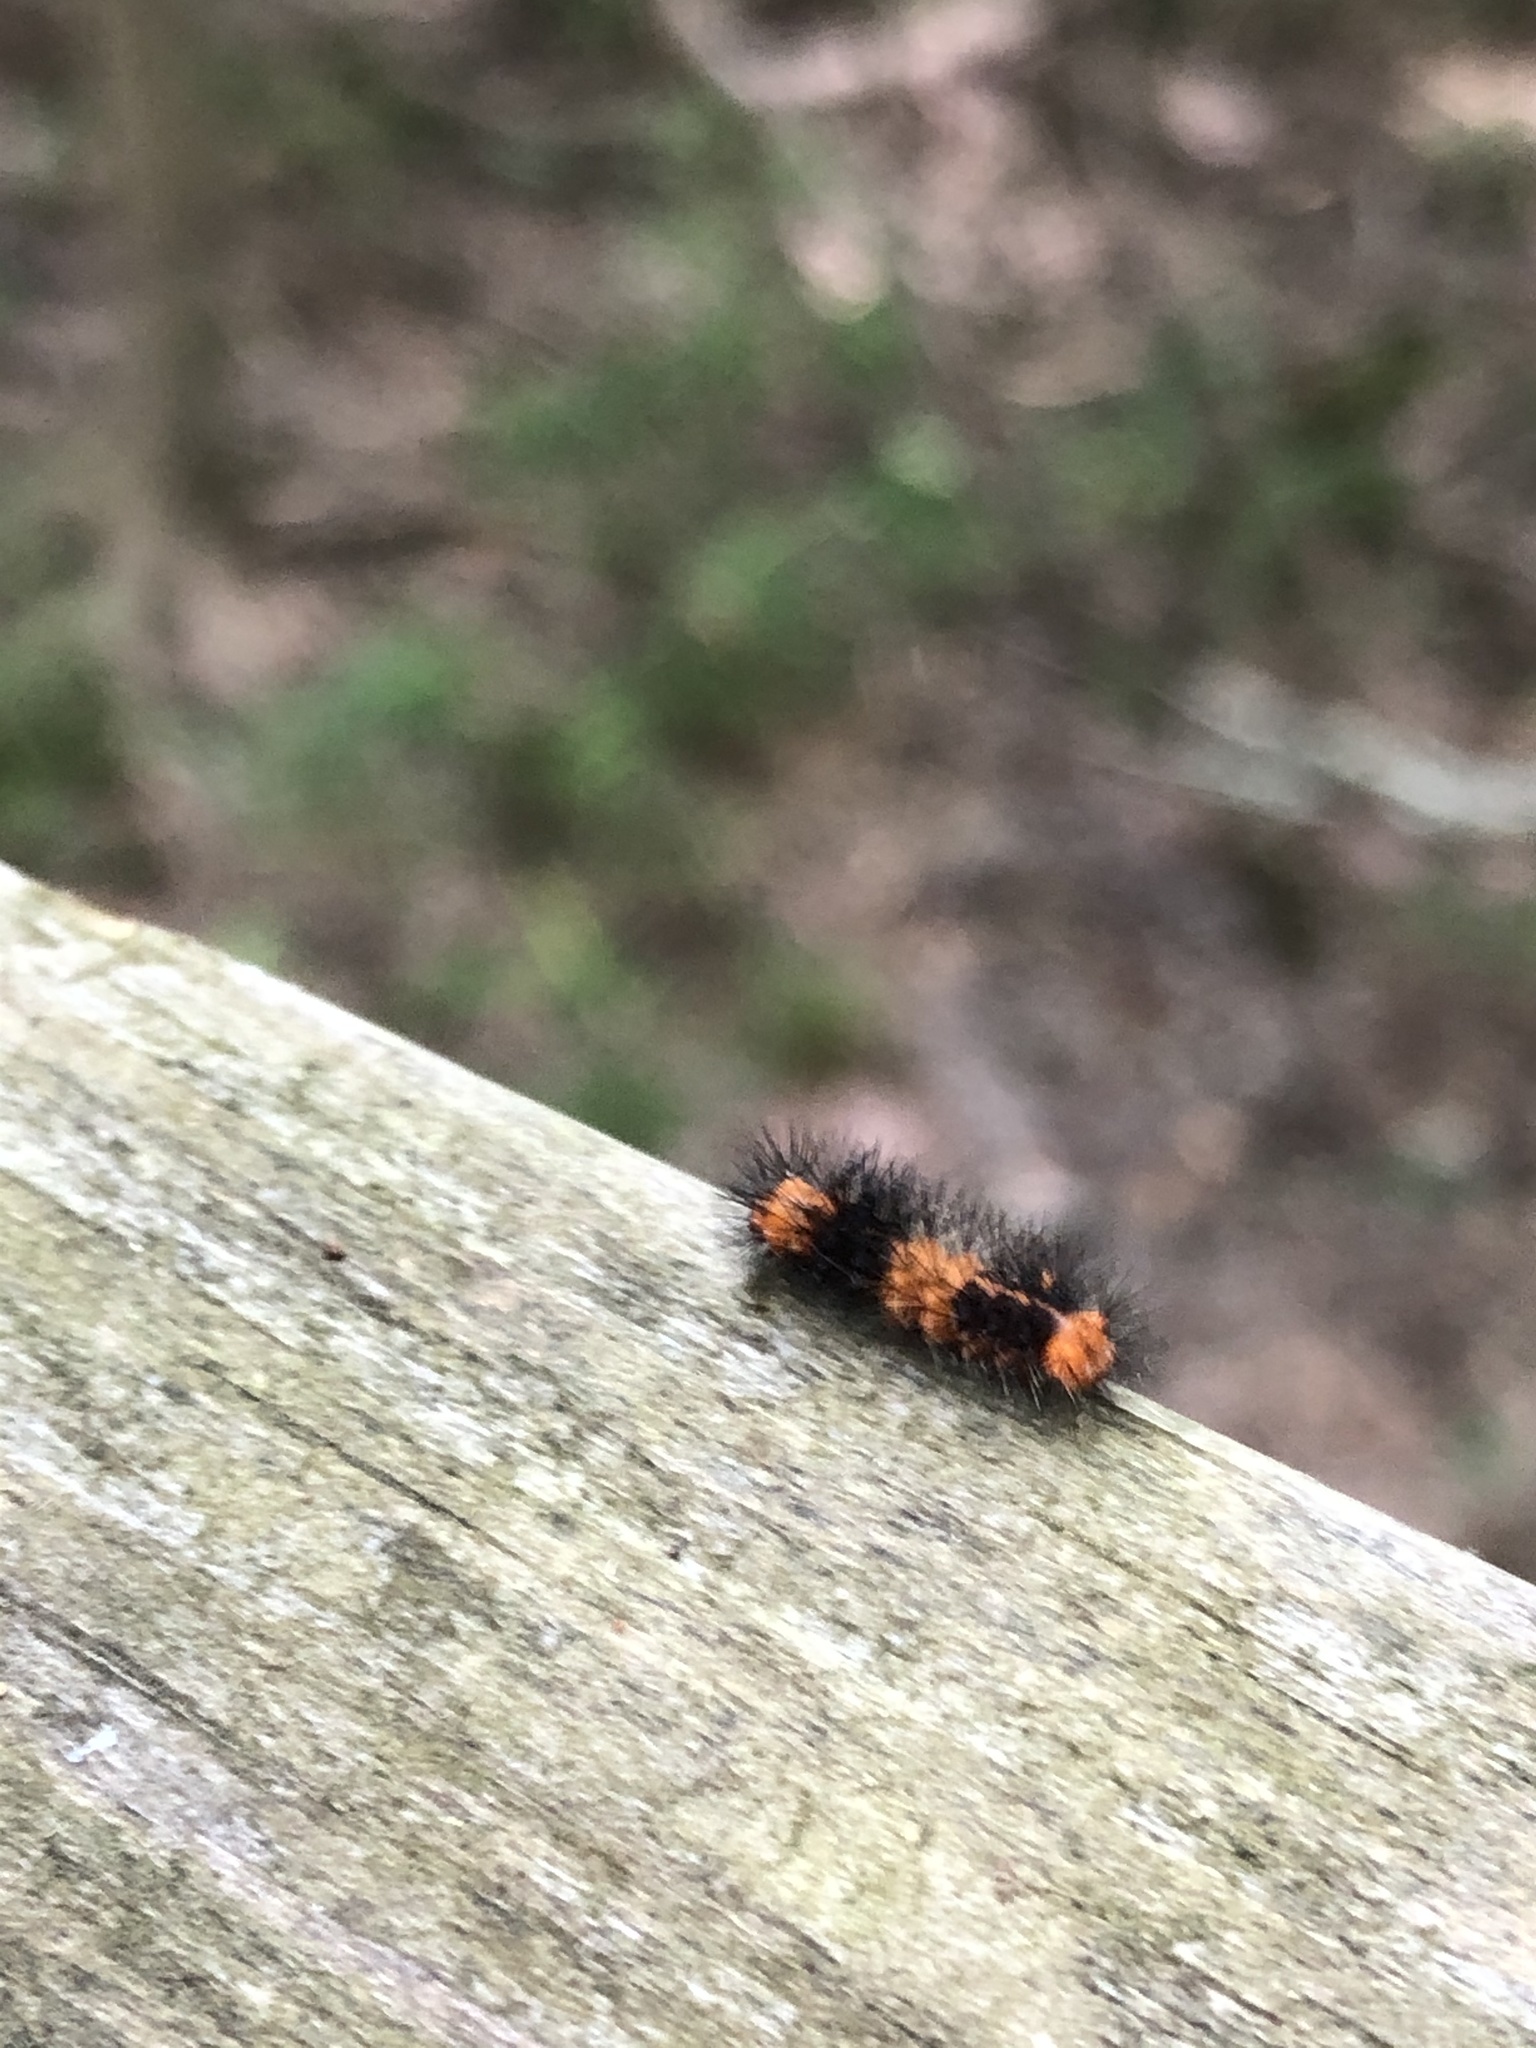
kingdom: Animalia
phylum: Arthropoda
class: Insecta
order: Lepidoptera
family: Erebidae
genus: Hypercompe
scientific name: Hypercompe scribonia
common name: Giant leopard moth
